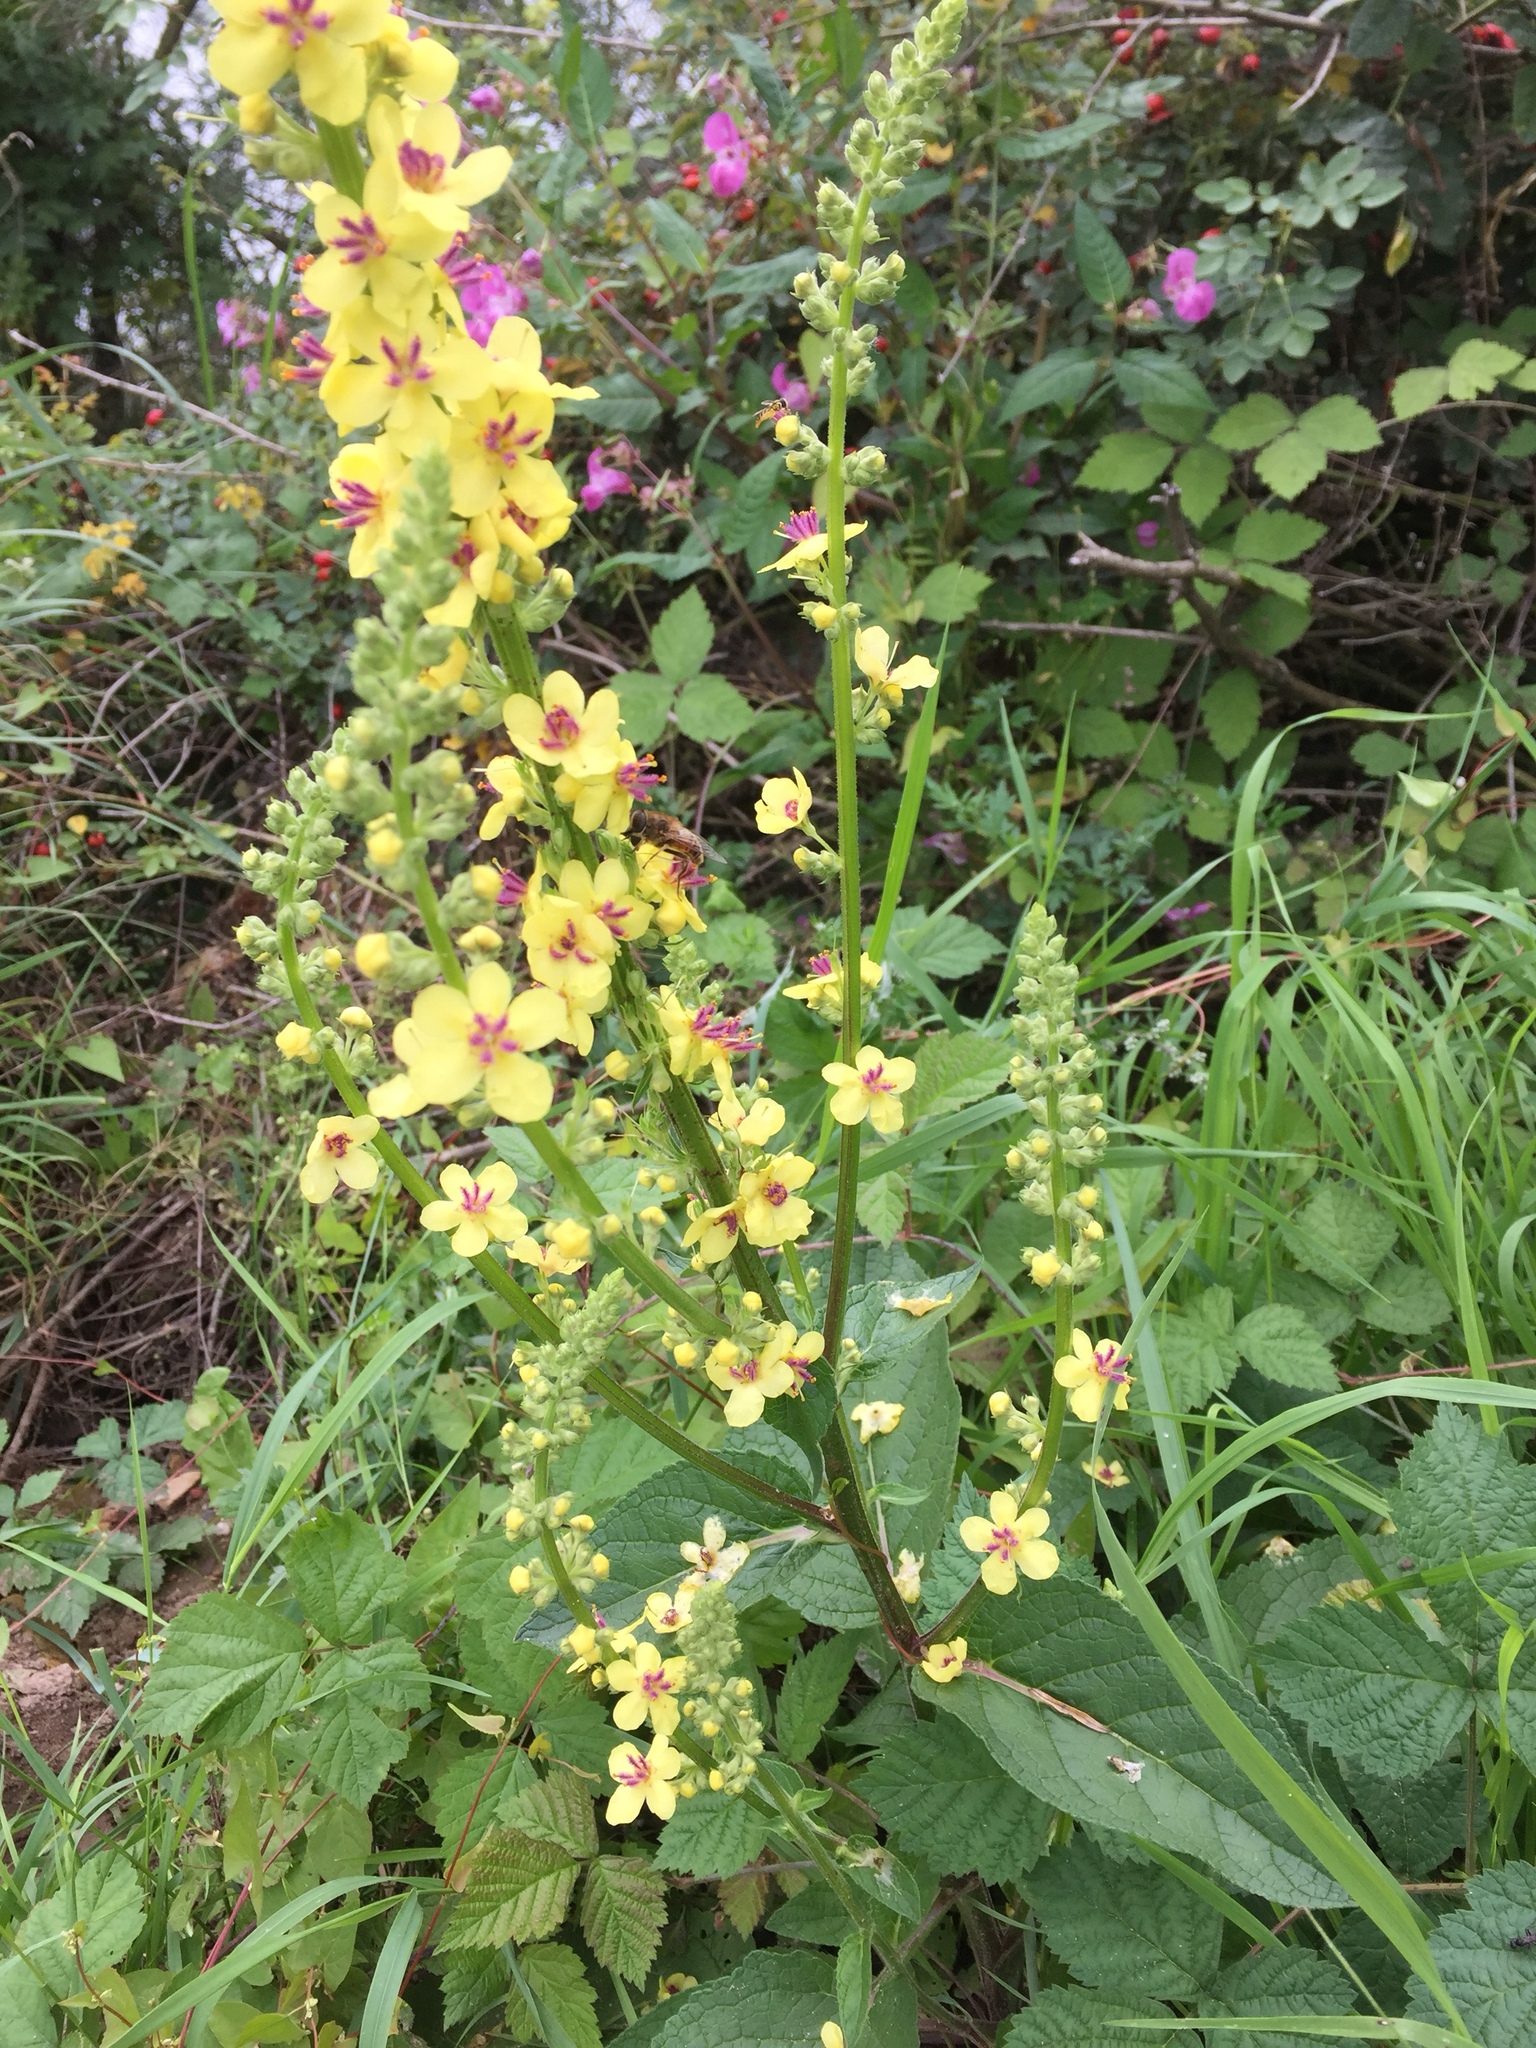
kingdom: Plantae
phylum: Tracheophyta
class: Magnoliopsida
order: Lamiales
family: Scrophulariaceae
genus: Verbascum
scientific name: Verbascum nigrum
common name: Dark mullein
